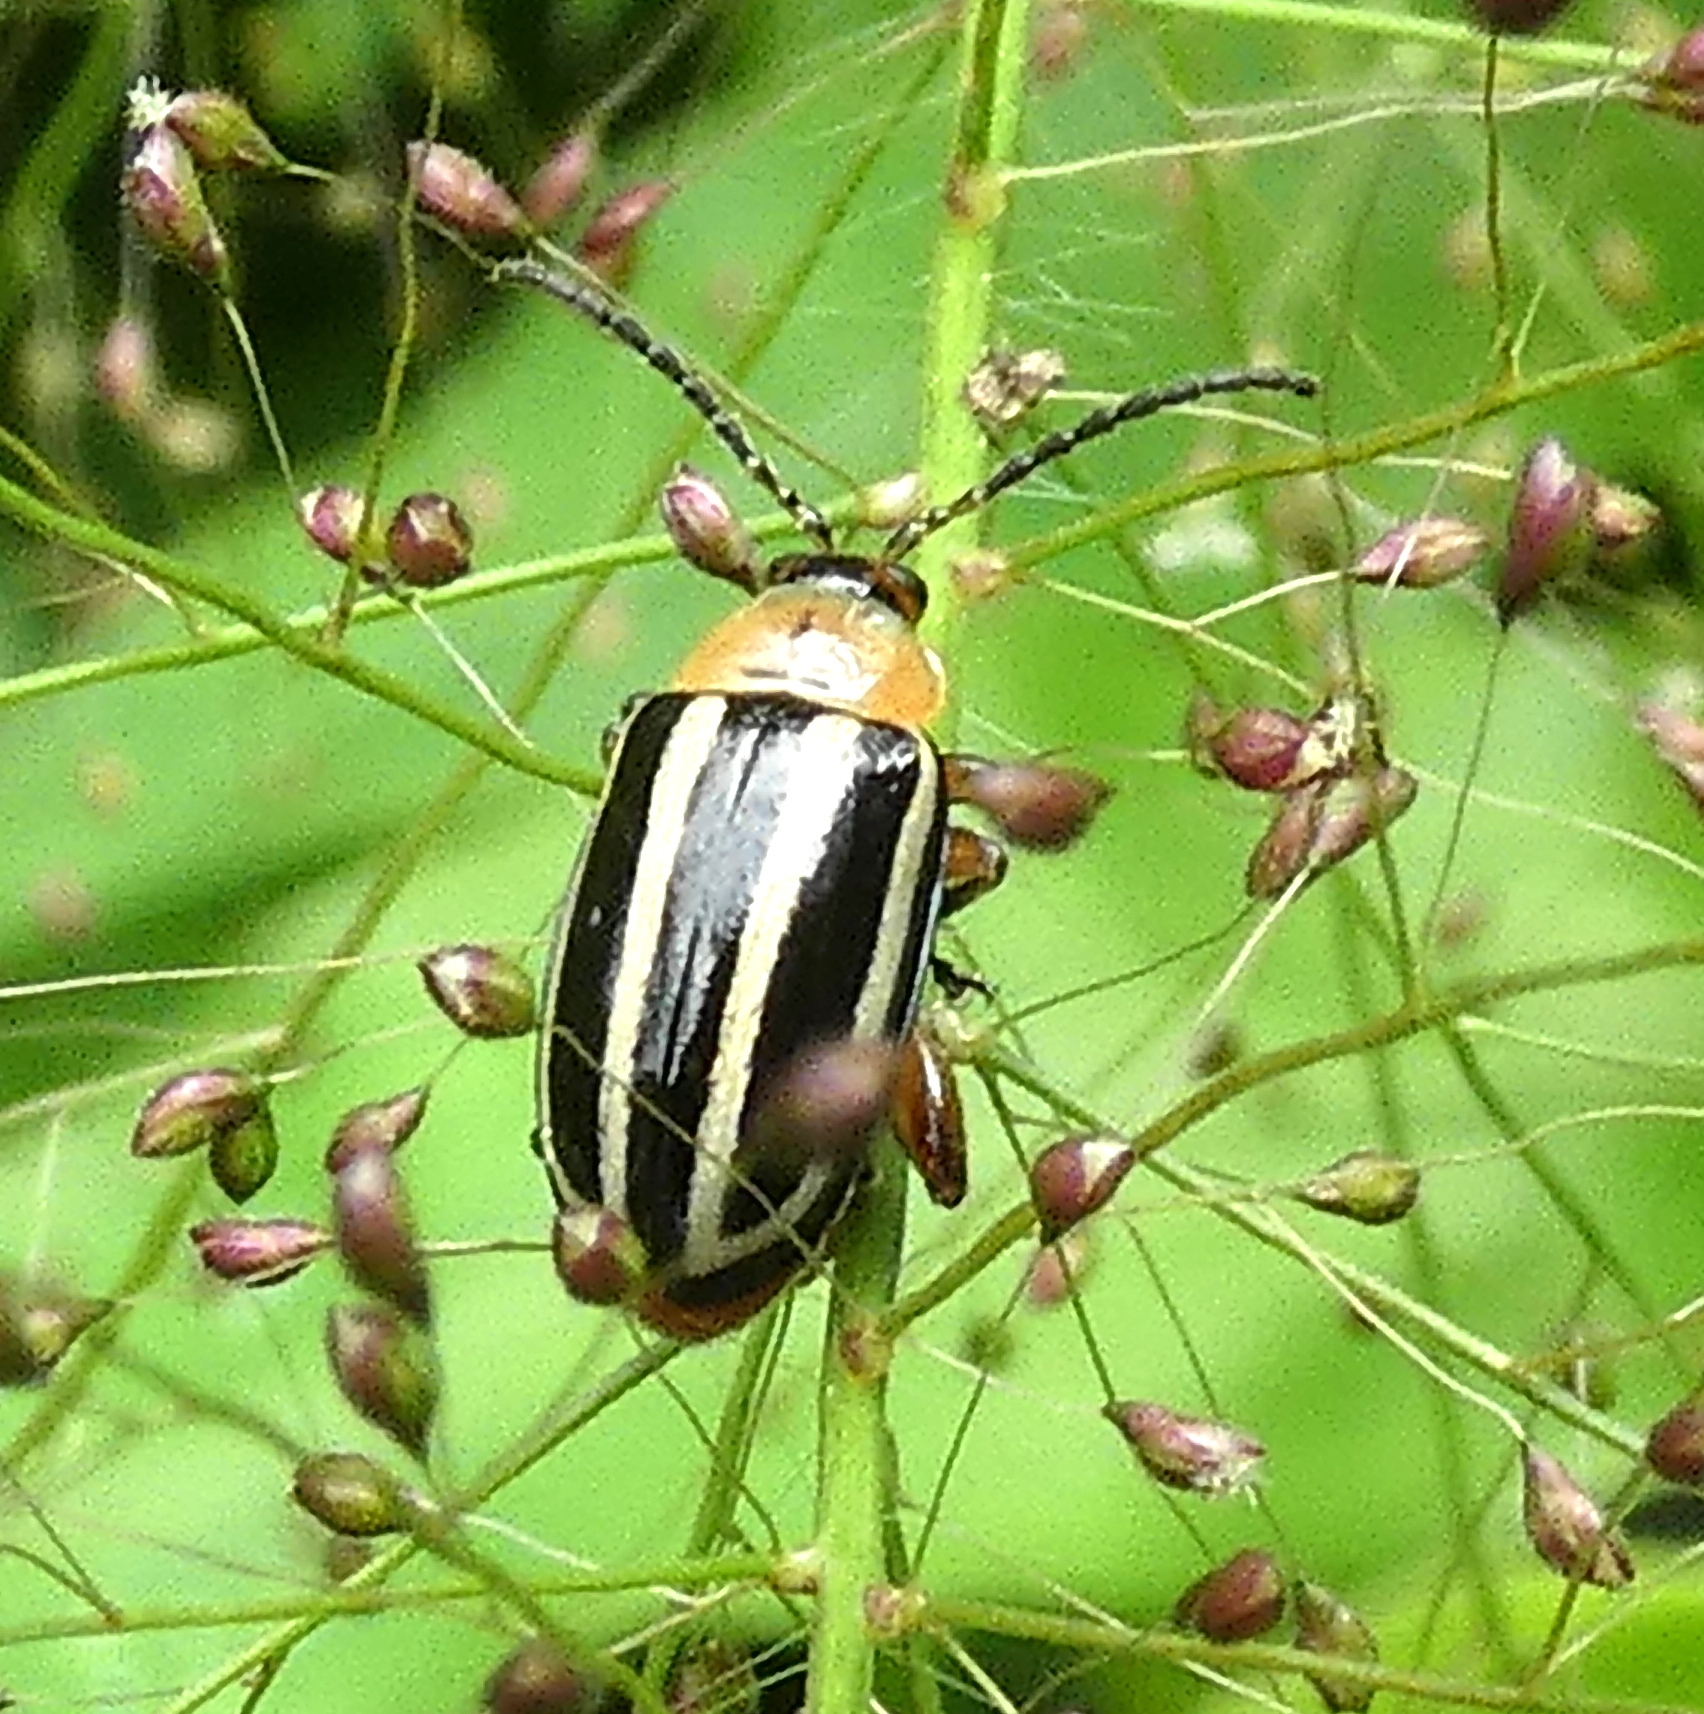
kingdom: Animalia
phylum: Arthropoda
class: Insecta
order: Coleoptera
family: Chrysomelidae
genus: Disonycha
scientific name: Disonycha glabrata
